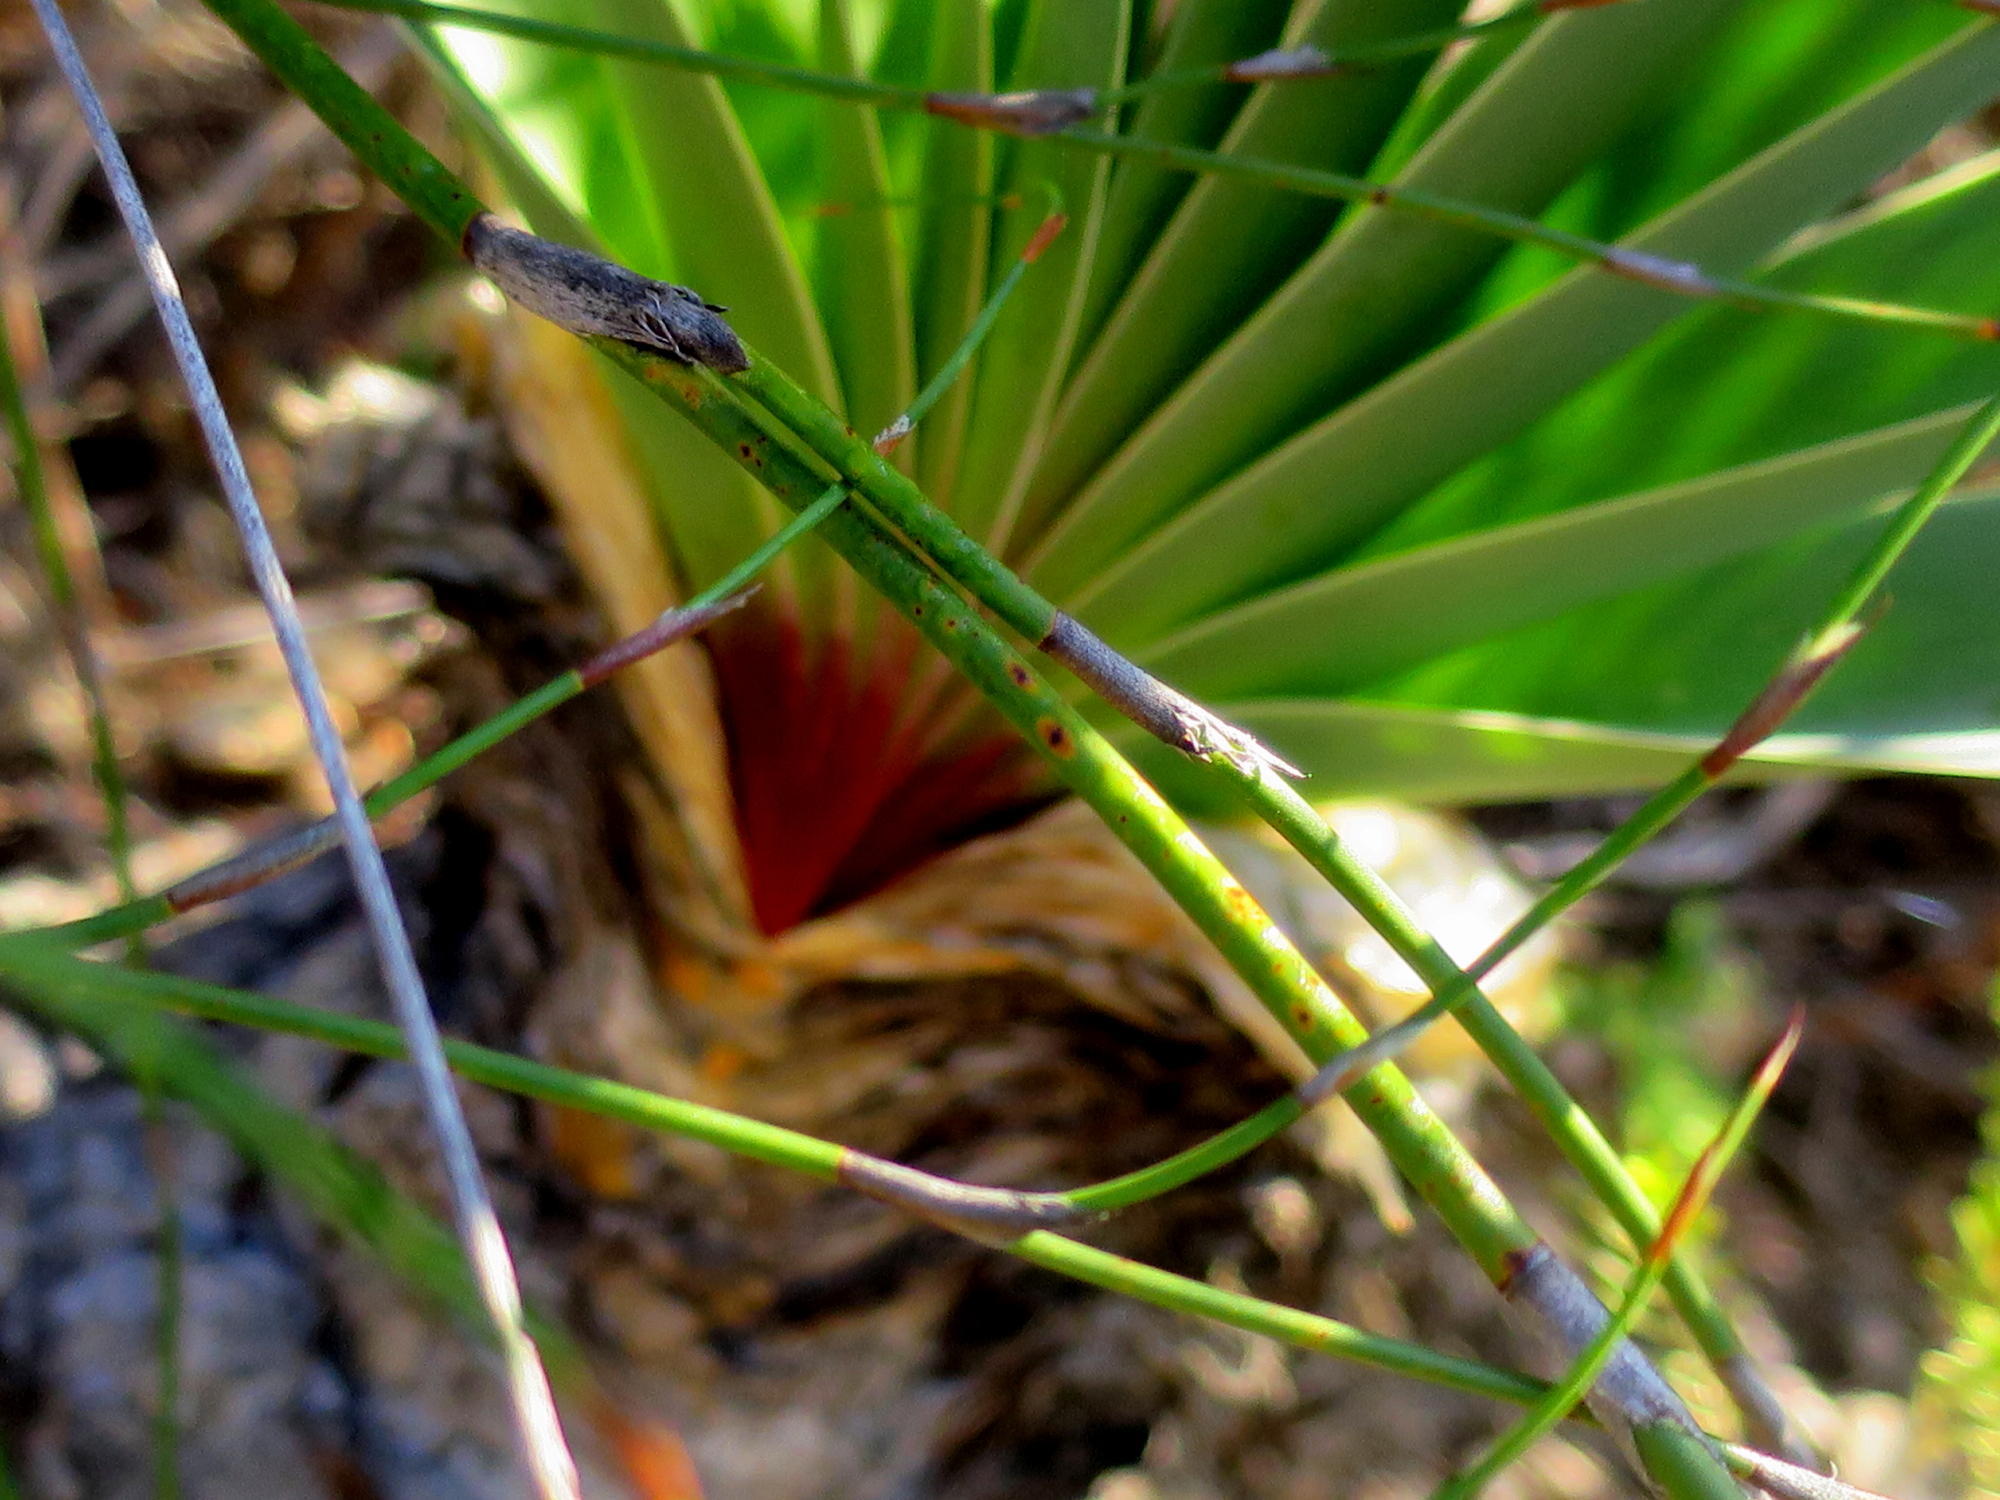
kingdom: Plantae
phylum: Tracheophyta
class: Liliopsida
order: Asparagales
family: Amaryllidaceae
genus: Boophone
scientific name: Boophone disticha
